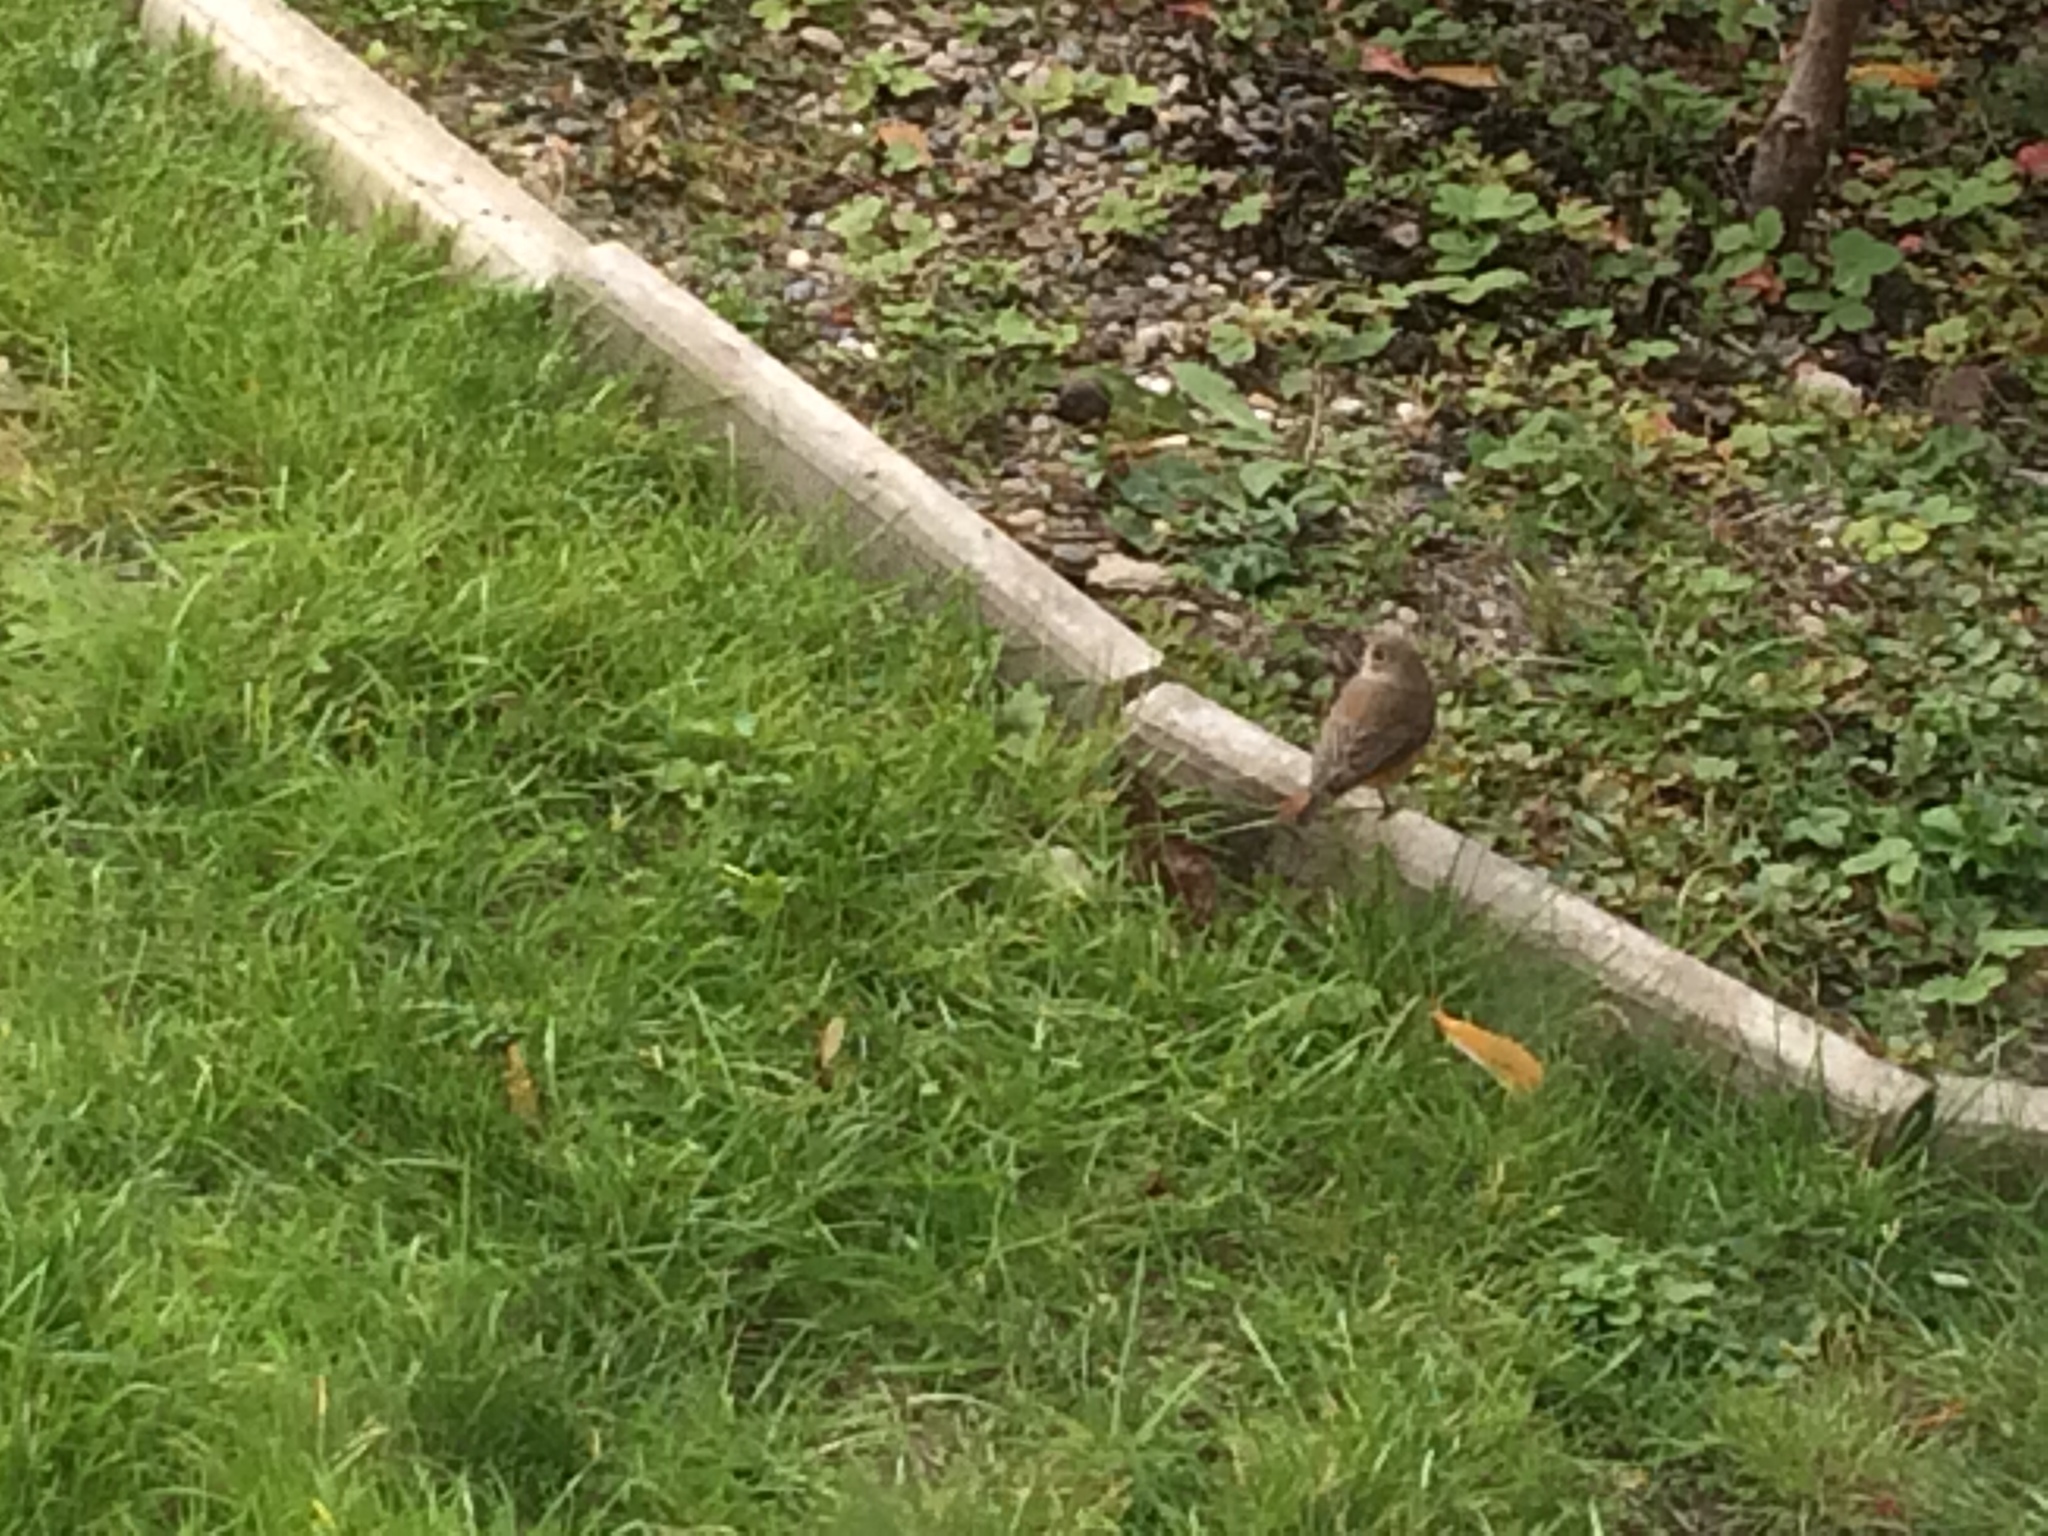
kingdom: Animalia
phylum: Chordata
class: Aves
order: Passeriformes
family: Muscicapidae
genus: Phoenicurus
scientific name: Phoenicurus phoenicurus
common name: Common redstart
